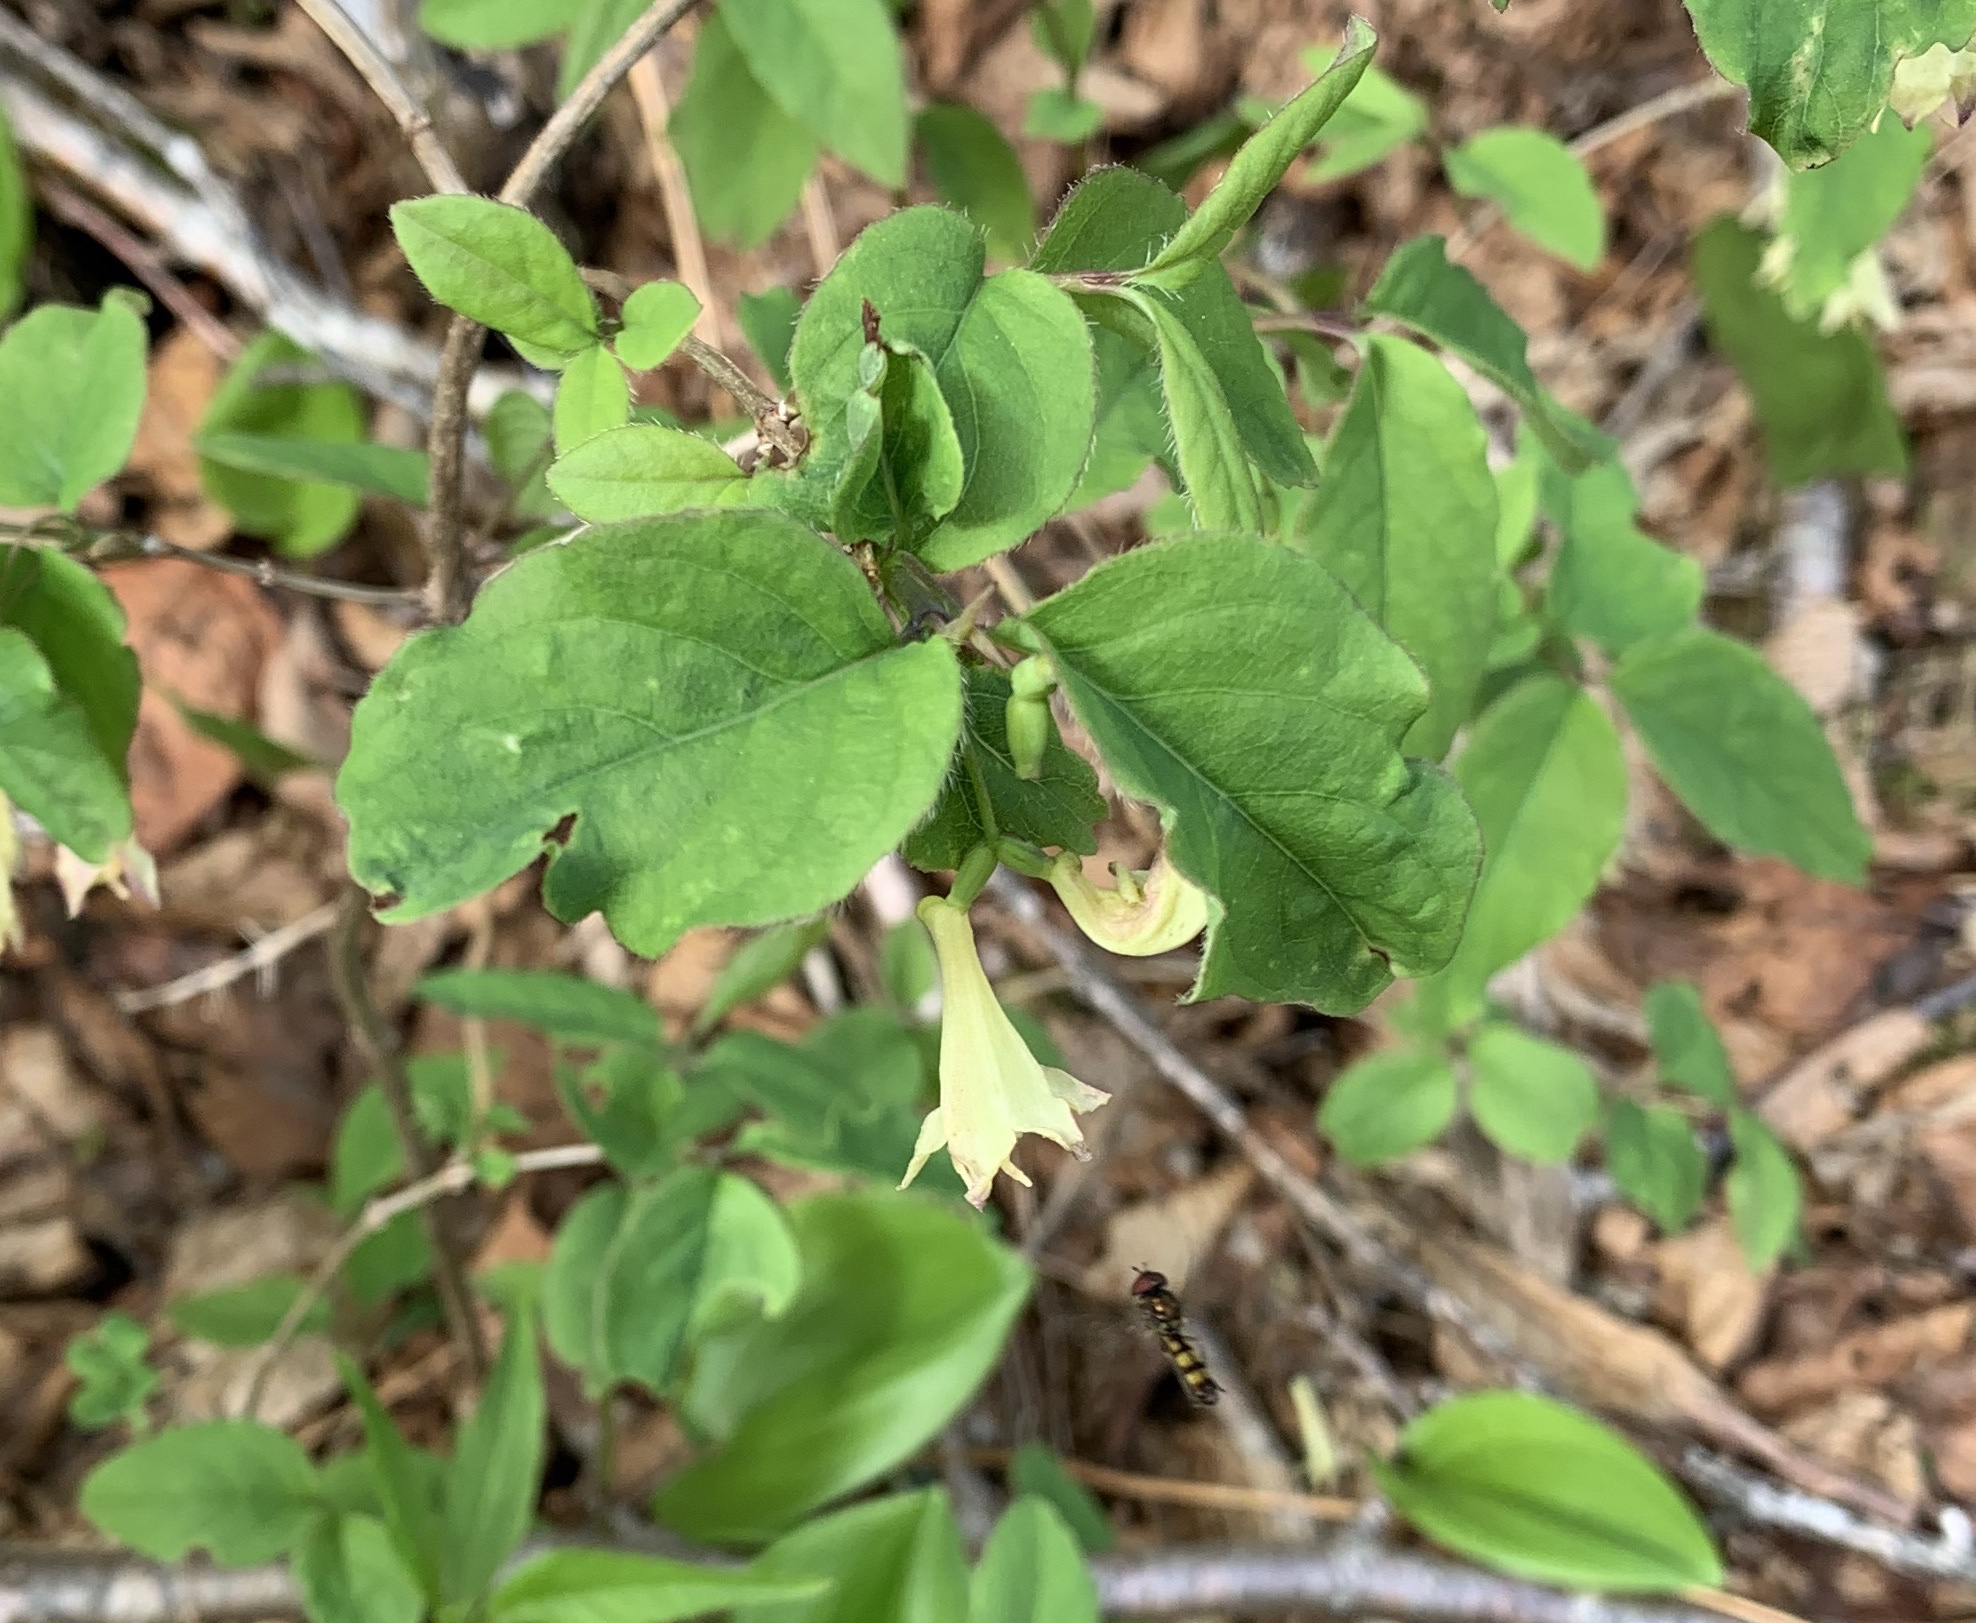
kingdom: Plantae
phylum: Tracheophyta
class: Magnoliopsida
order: Dipsacales
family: Caprifoliaceae
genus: Lonicera
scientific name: Lonicera canadensis
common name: American fly-honeysuckle
